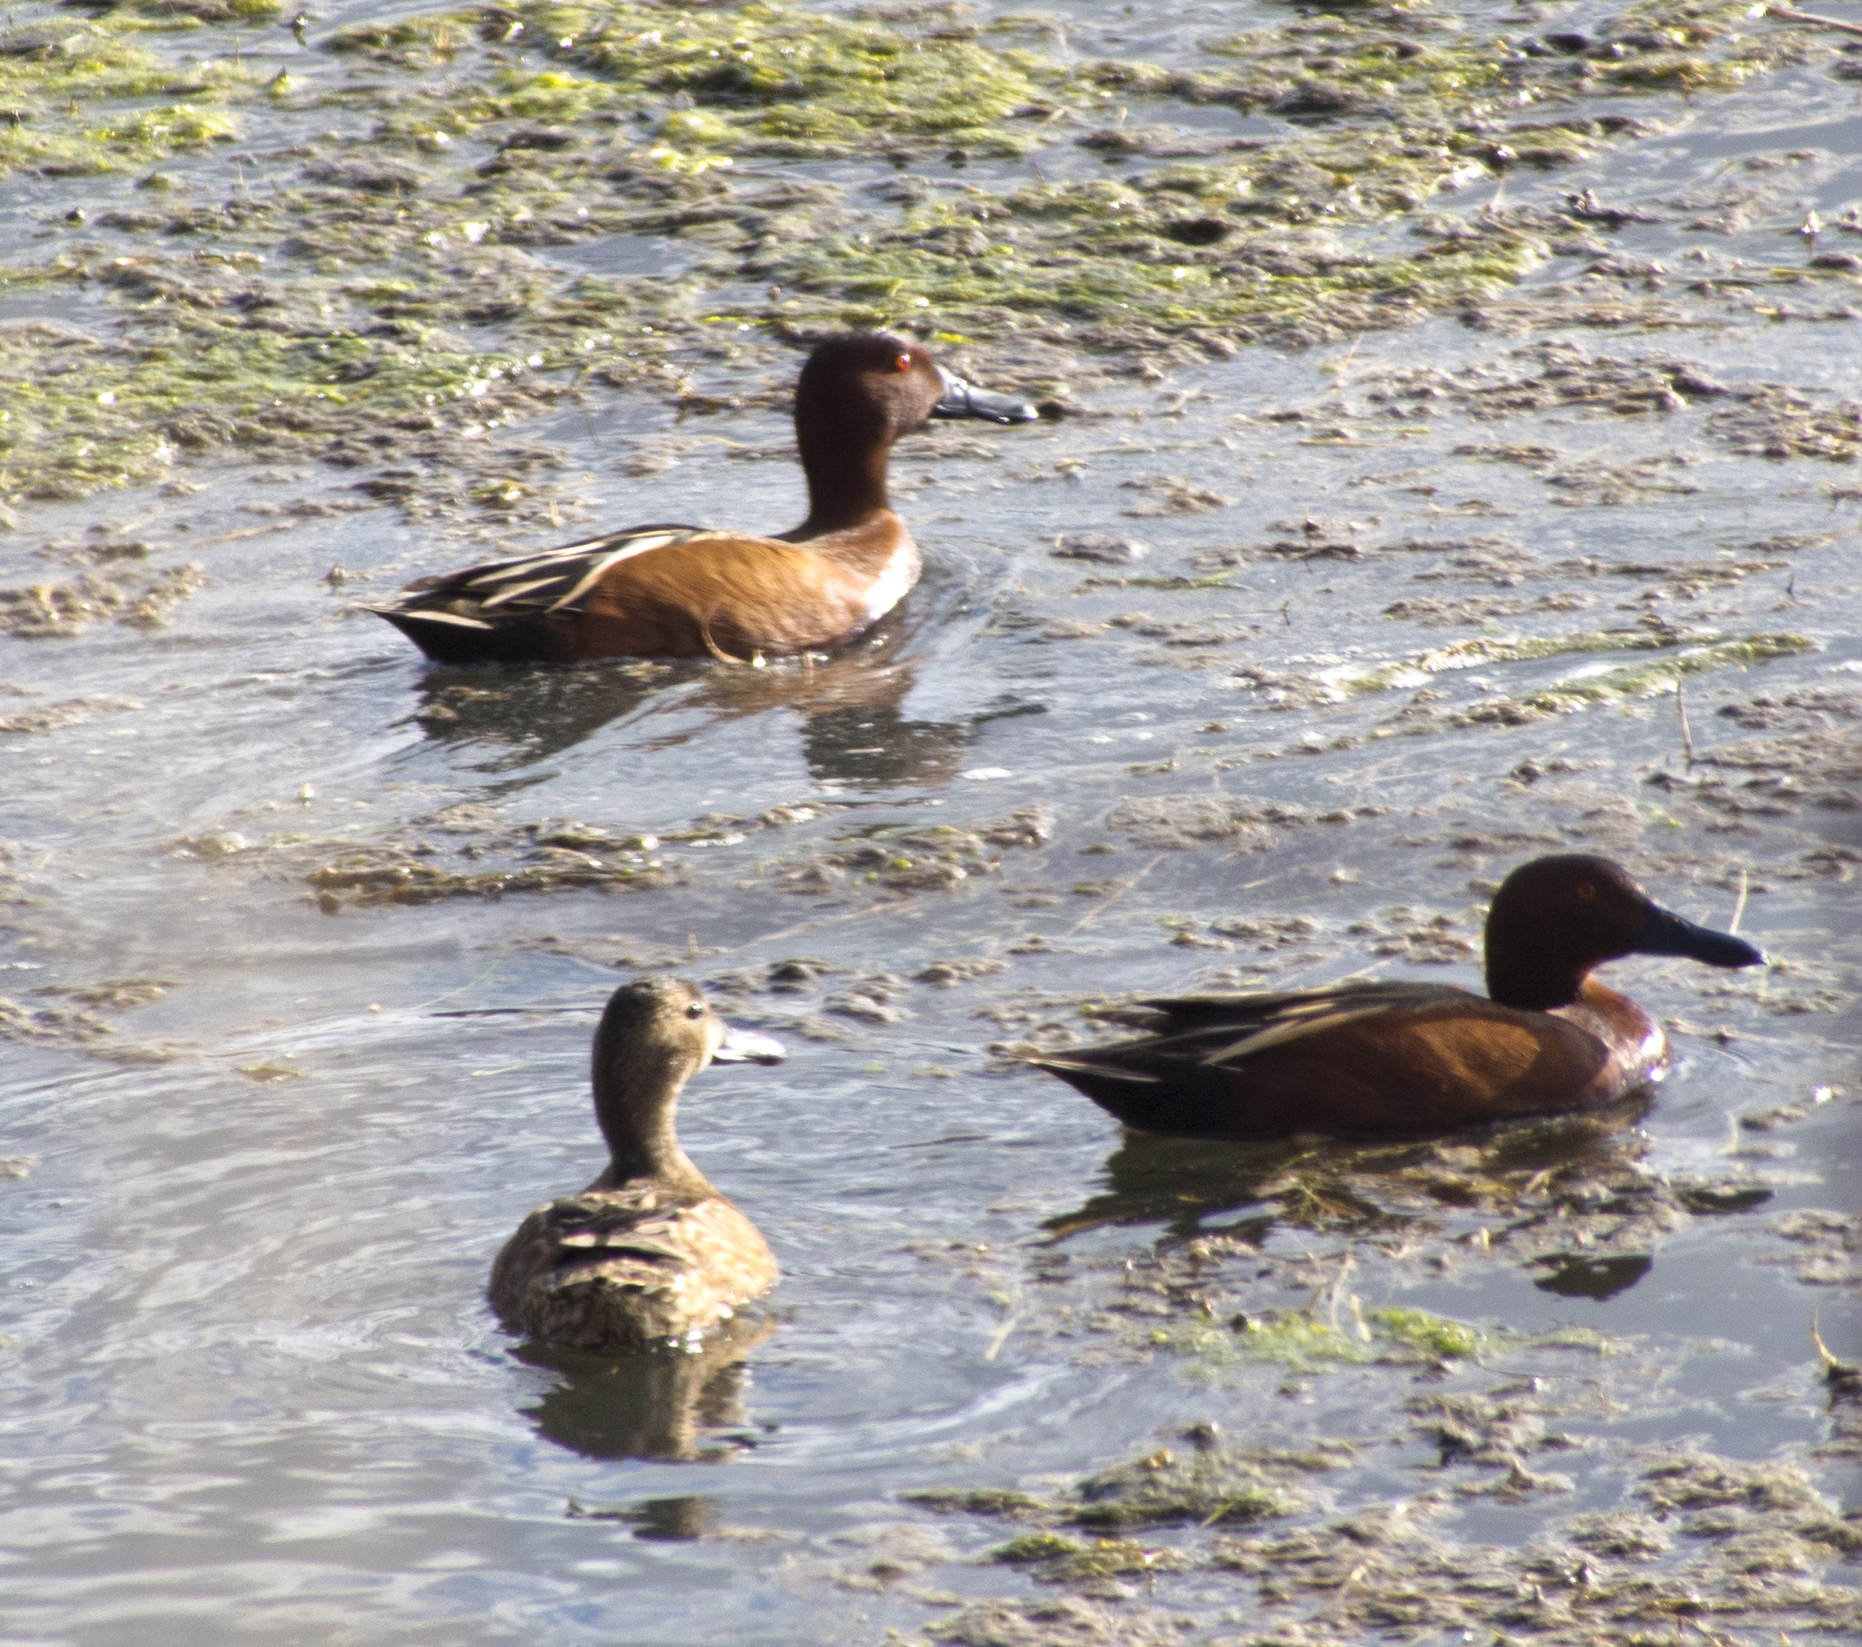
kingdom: Animalia
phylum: Chordata
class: Aves
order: Anseriformes
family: Anatidae
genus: Spatula
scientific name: Spatula cyanoptera
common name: Cinnamon teal
